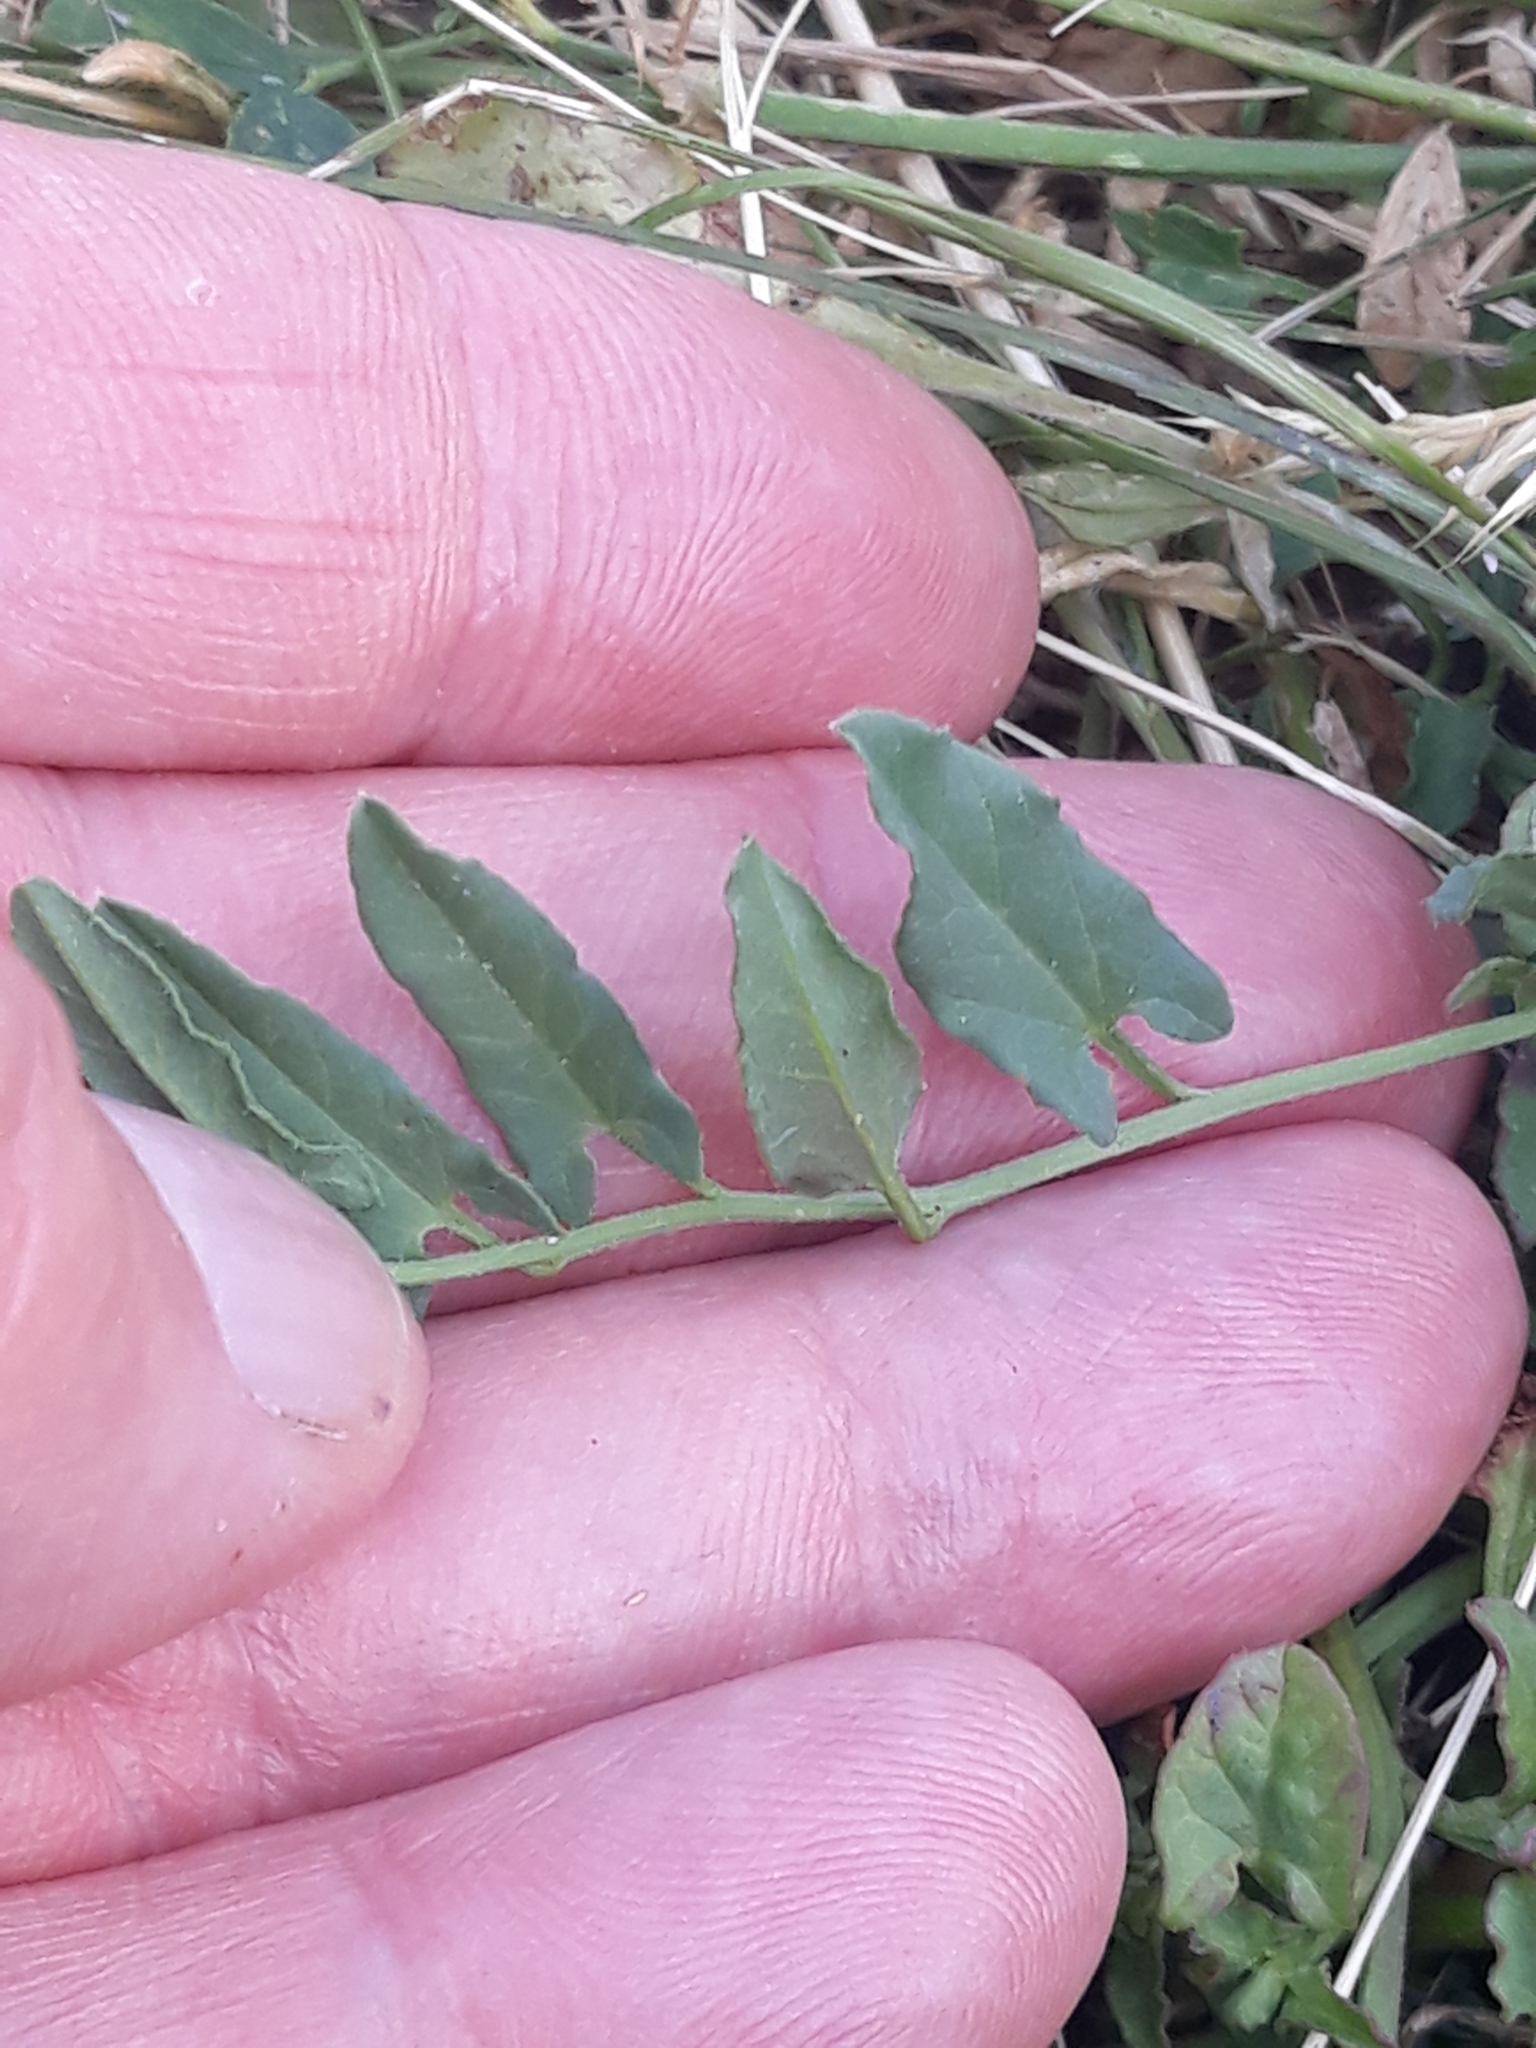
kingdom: Plantae
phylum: Tracheophyta
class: Magnoliopsida
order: Solanales
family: Convolvulaceae
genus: Convolvulus
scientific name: Convolvulus arvensis
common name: Field bindweed
